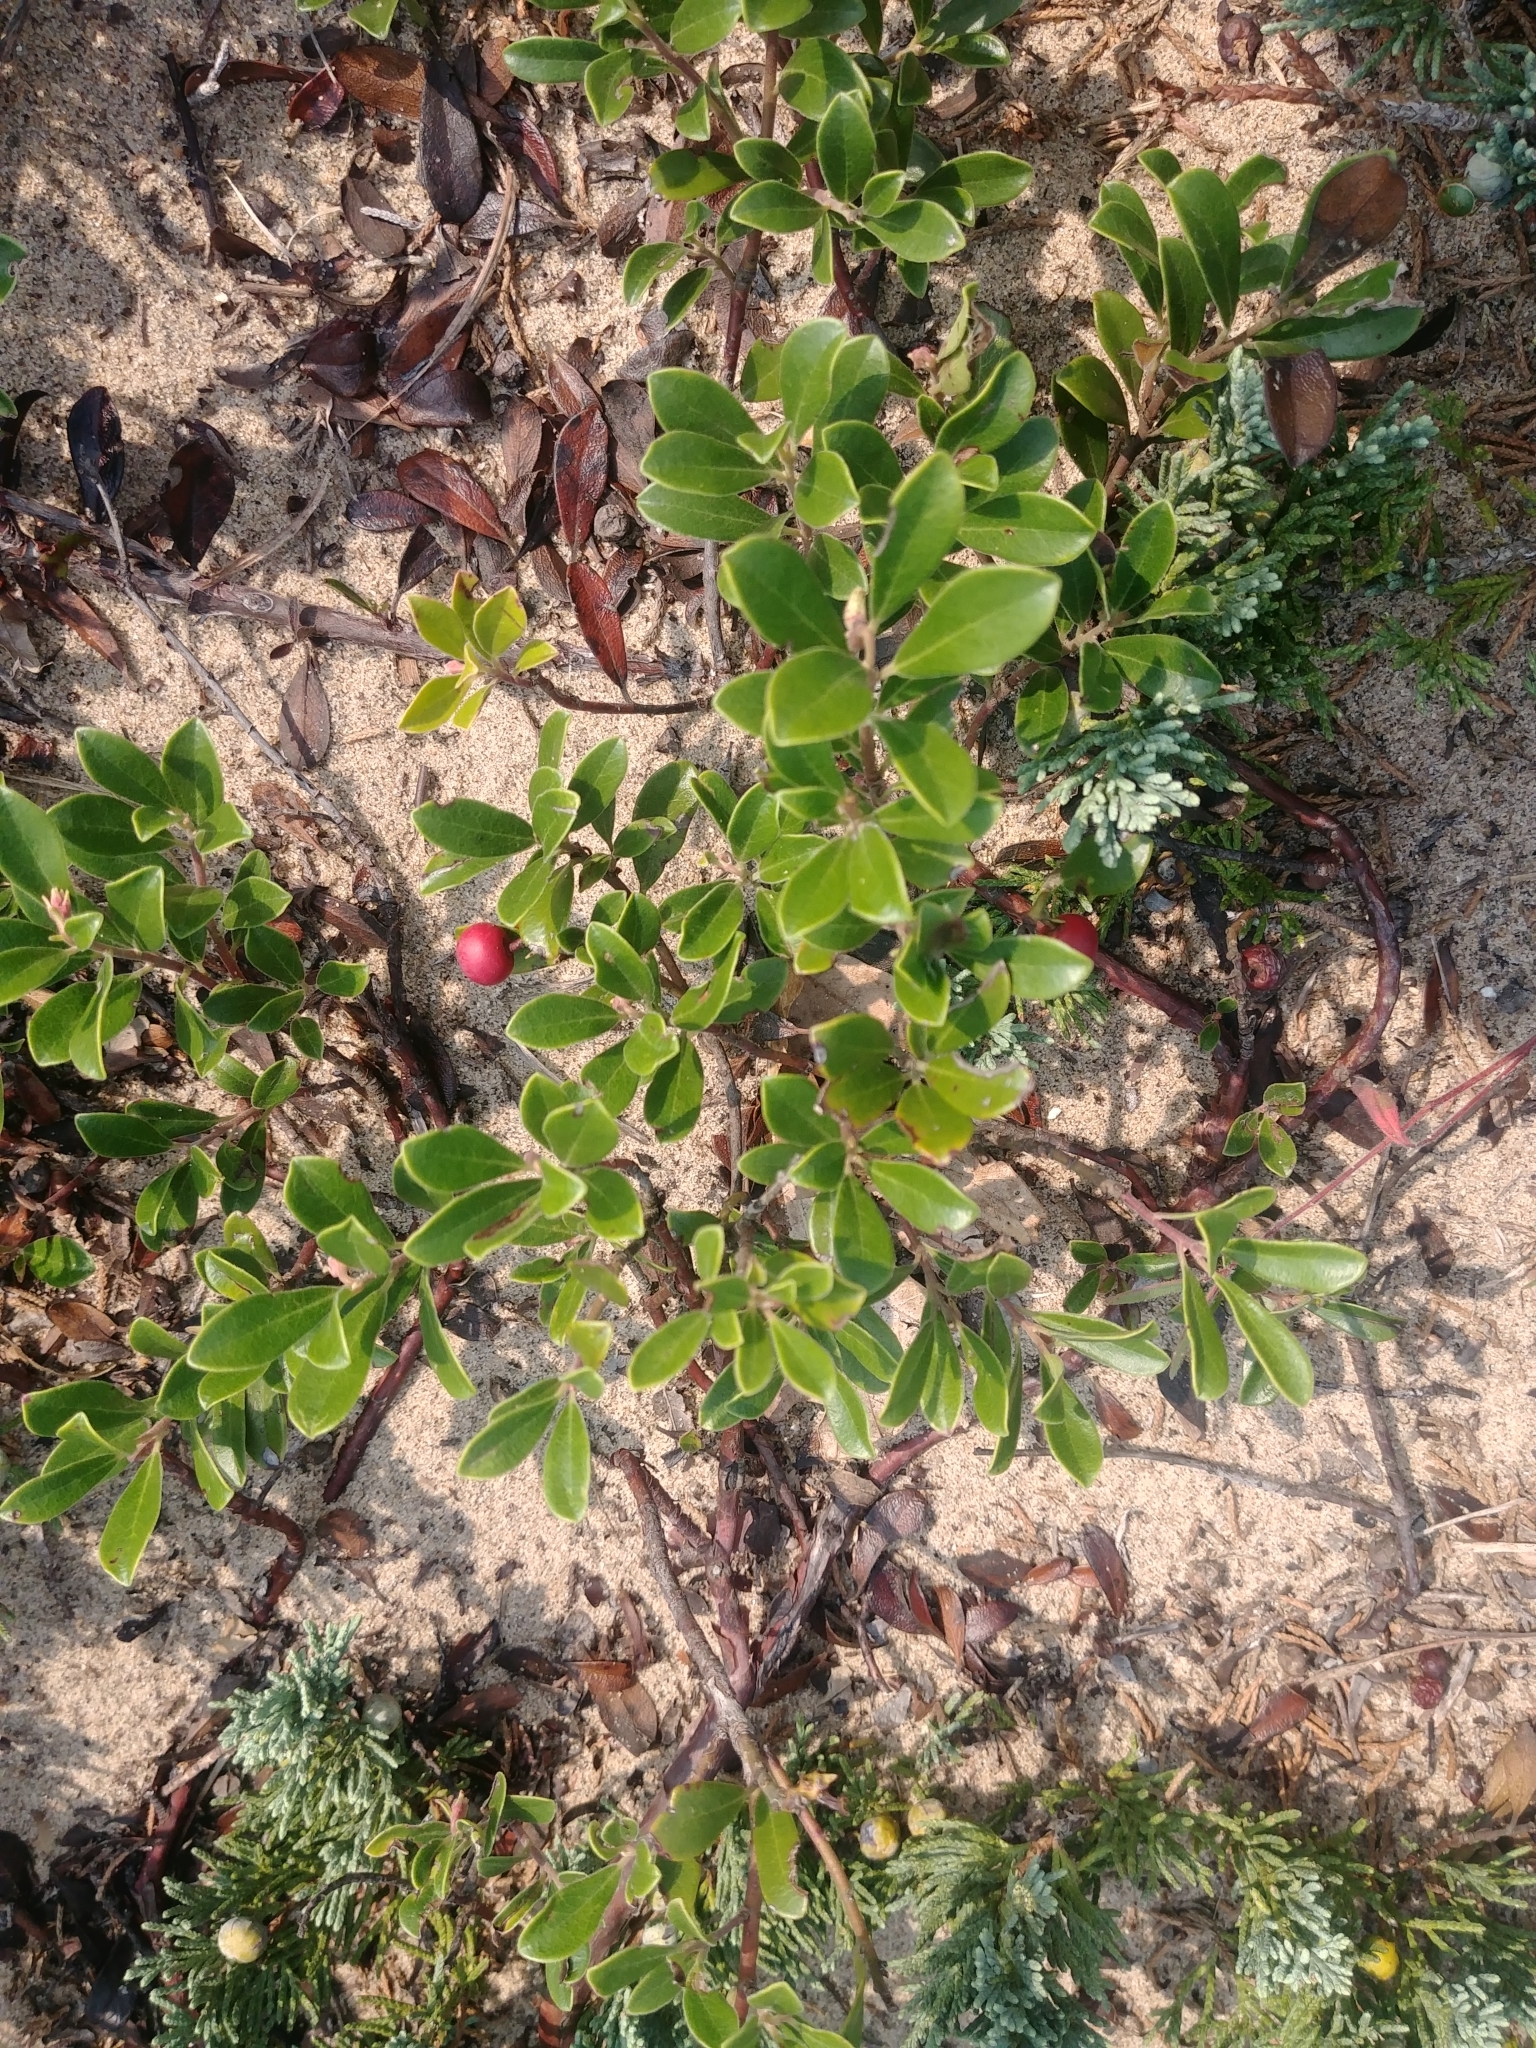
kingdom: Plantae
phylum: Tracheophyta
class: Magnoliopsida
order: Ericales
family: Ericaceae
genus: Arctostaphylos
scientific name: Arctostaphylos uva-ursi
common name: Bearberry
